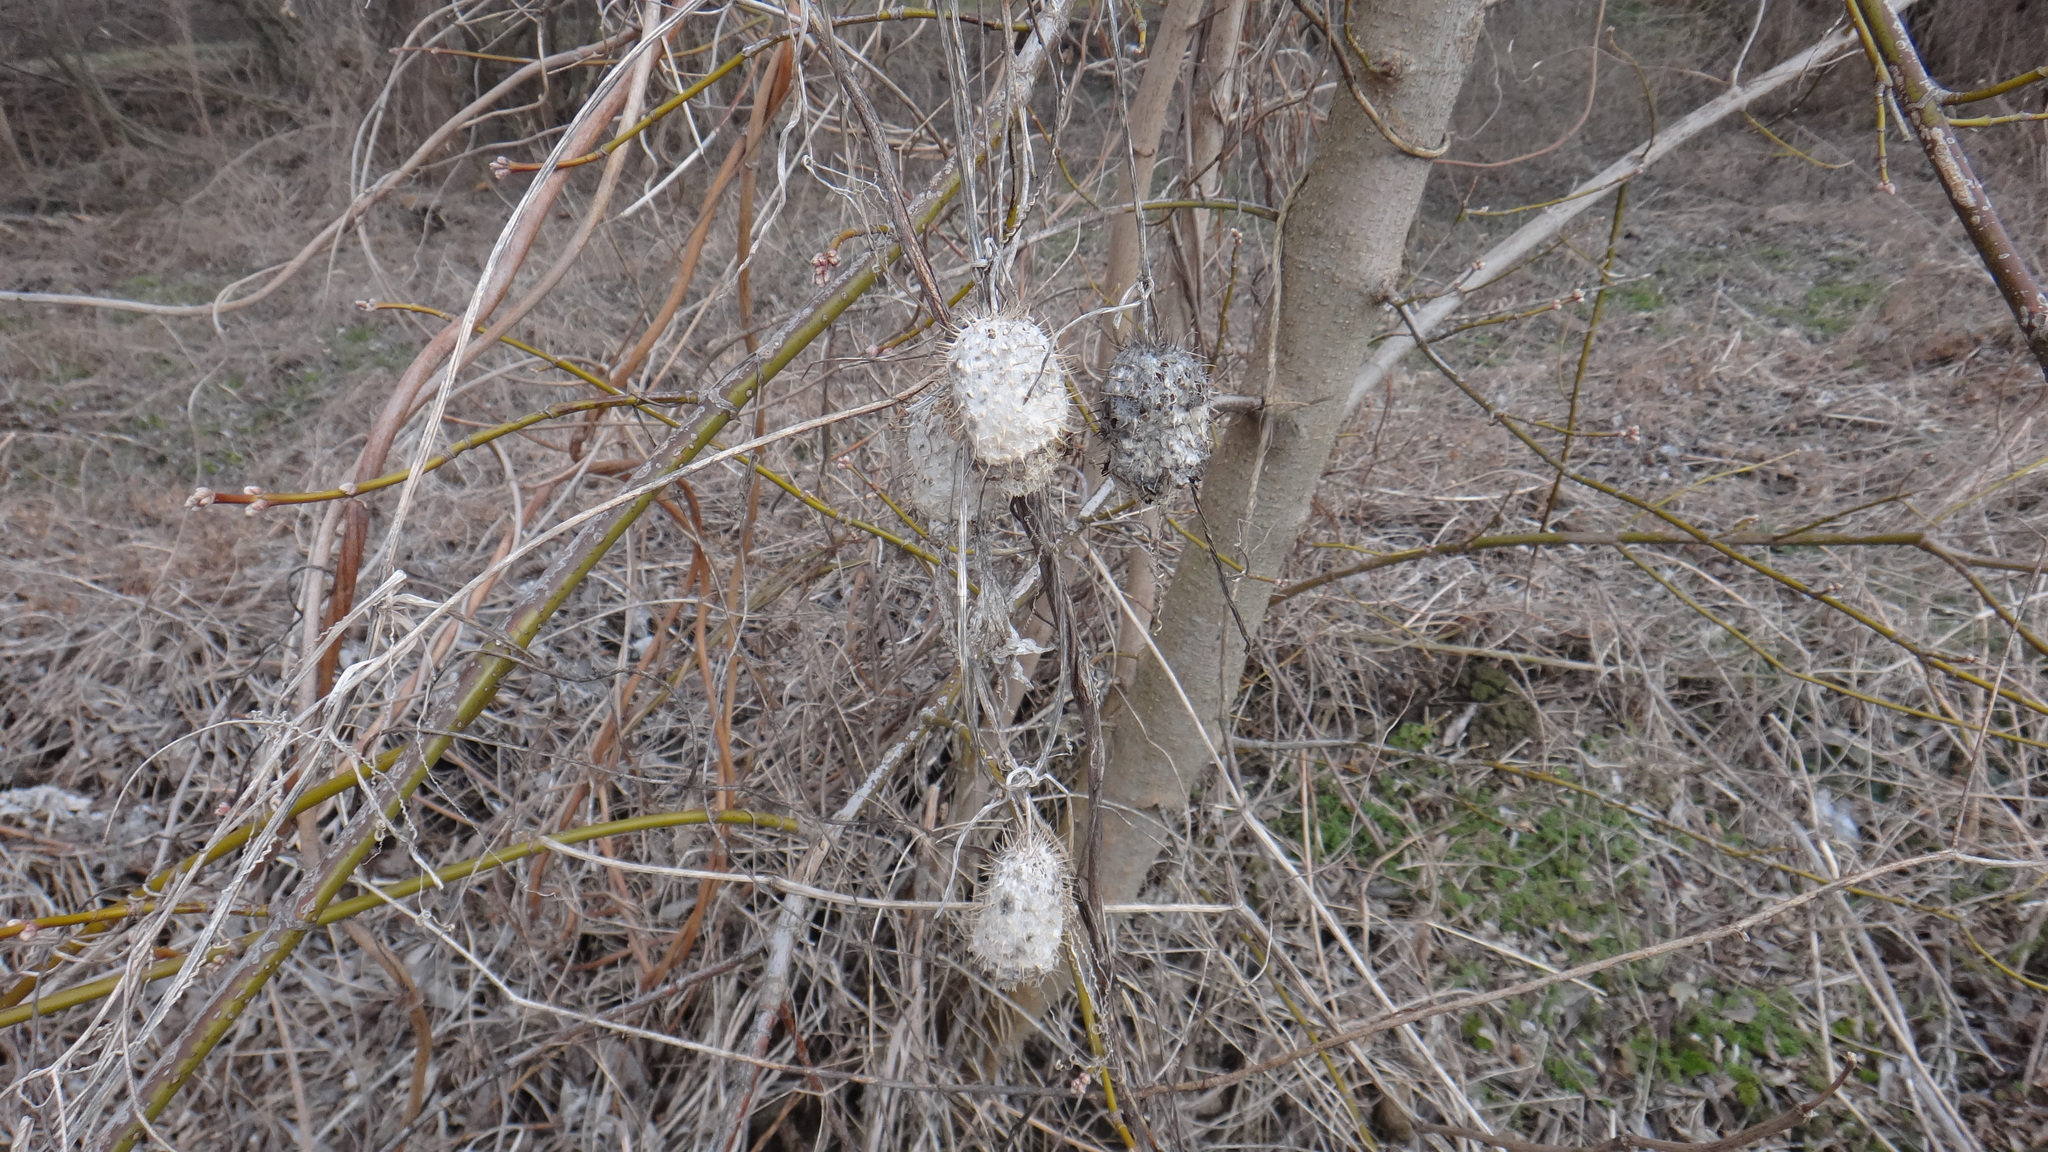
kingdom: Plantae
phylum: Tracheophyta
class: Magnoliopsida
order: Cucurbitales
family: Cucurbitaceae
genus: Echinocystis
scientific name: Echinocystis lobata
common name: Wild cucumber
